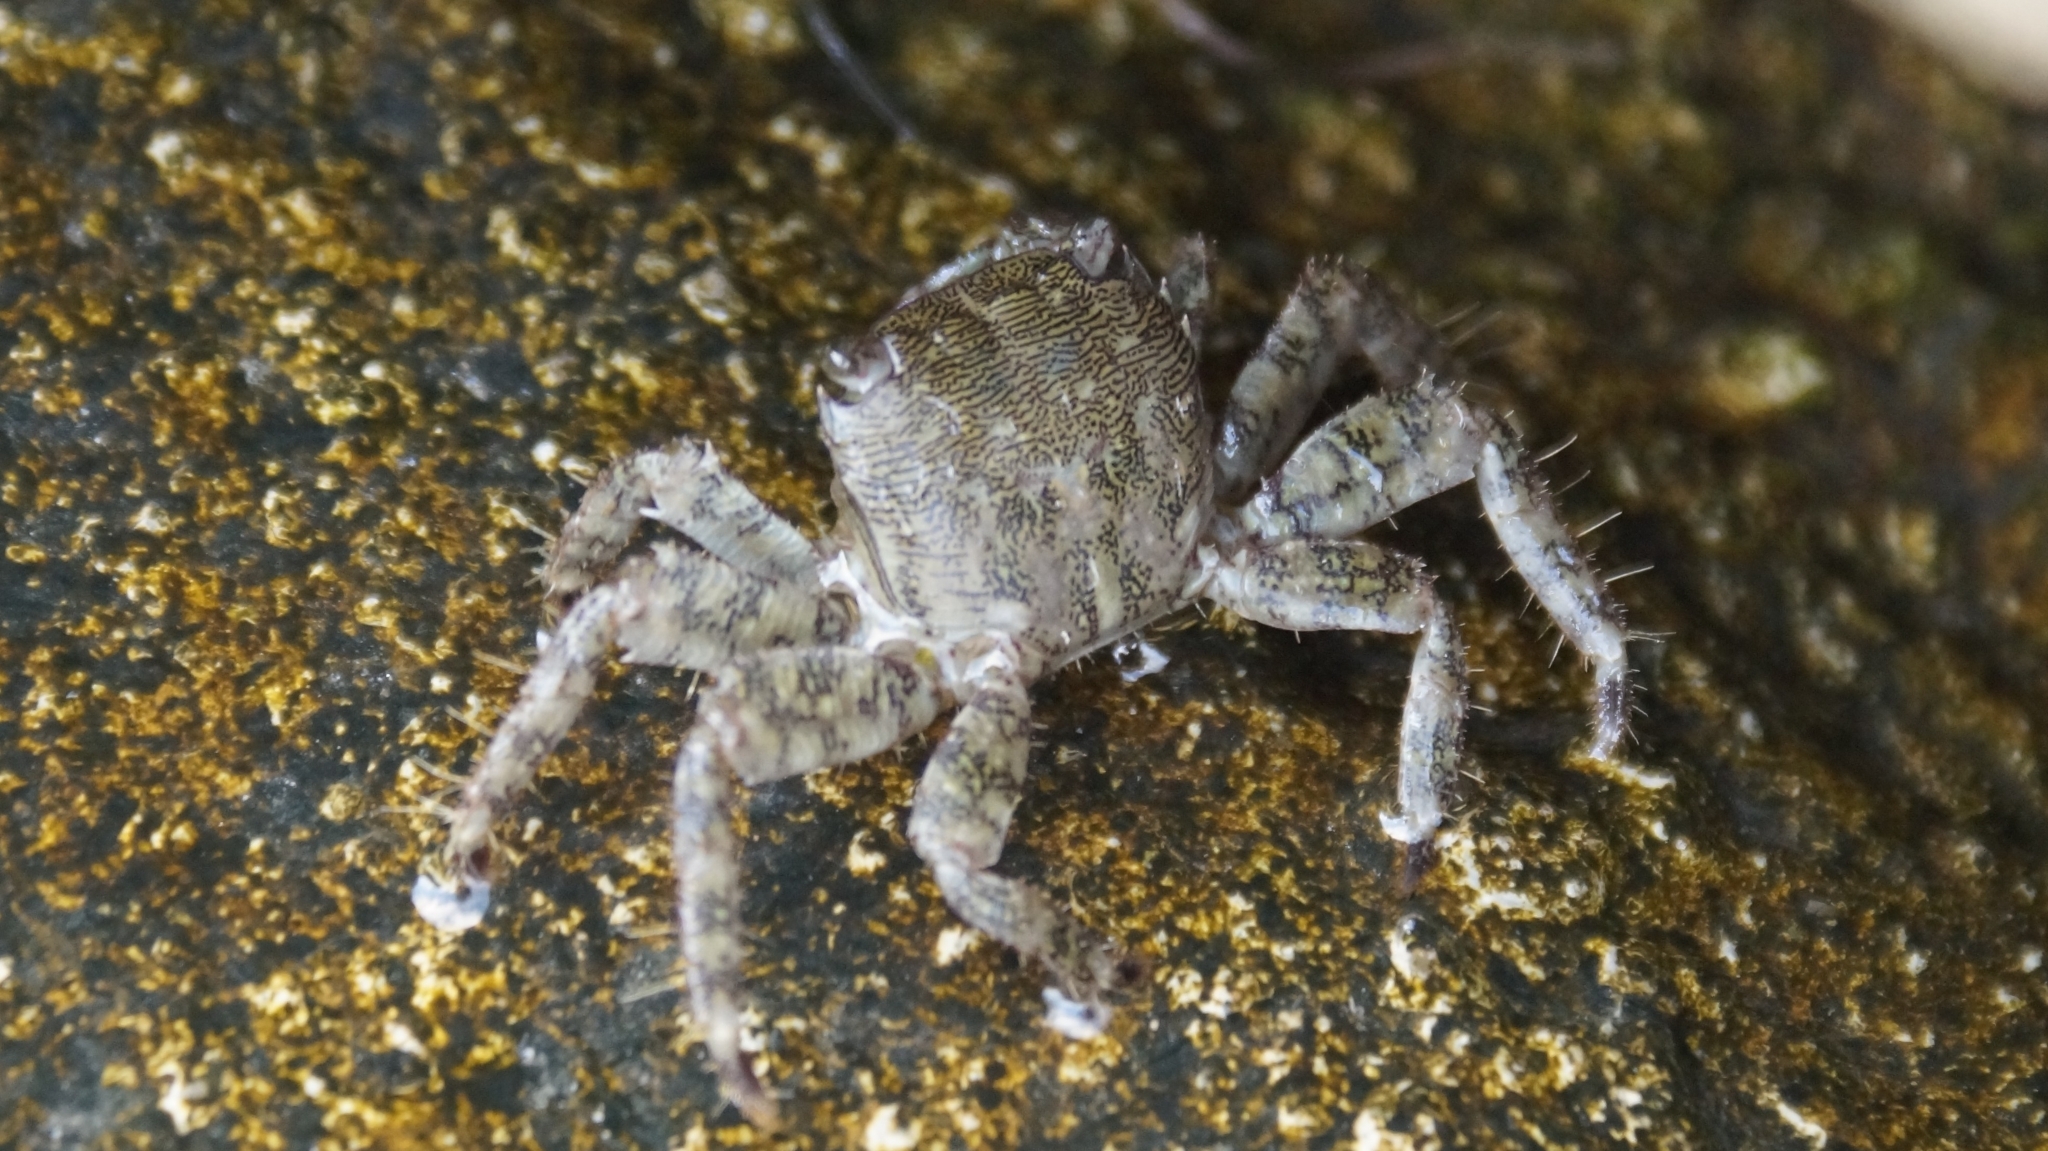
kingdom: Animalia
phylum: Arthropoda
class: Malacostraca
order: Decapoda
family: Grapsidae
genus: Pachygrapsus
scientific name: Pachygrapsus marmoratus
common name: Marbled rock crab
